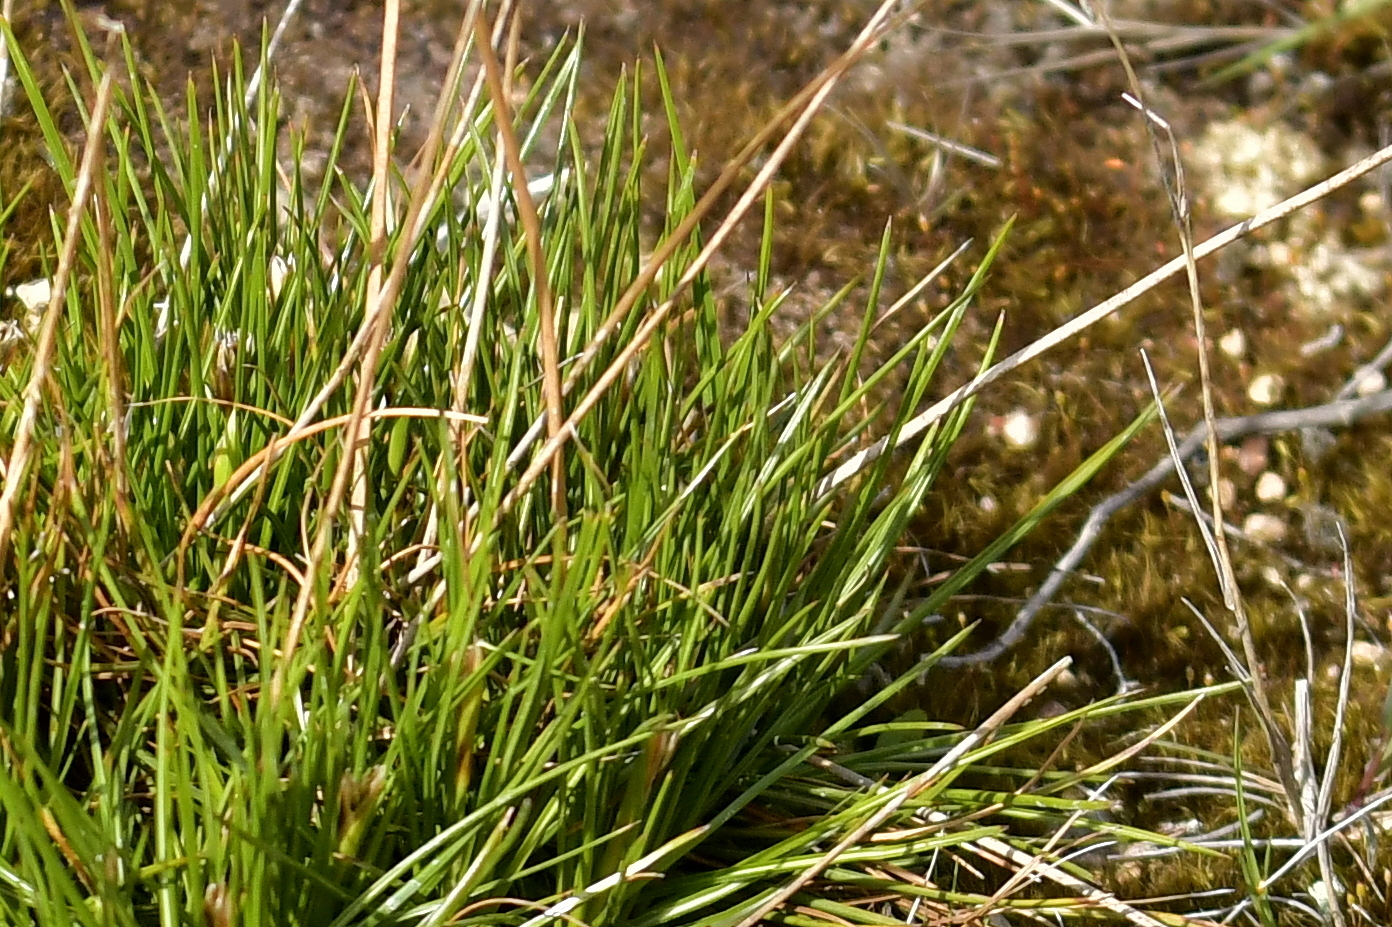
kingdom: Plantae
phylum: Tracheophyta
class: Liliopsida
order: Poales
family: Juncaceae
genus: Juncus
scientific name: Juncus squarrosus
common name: Heath rush
